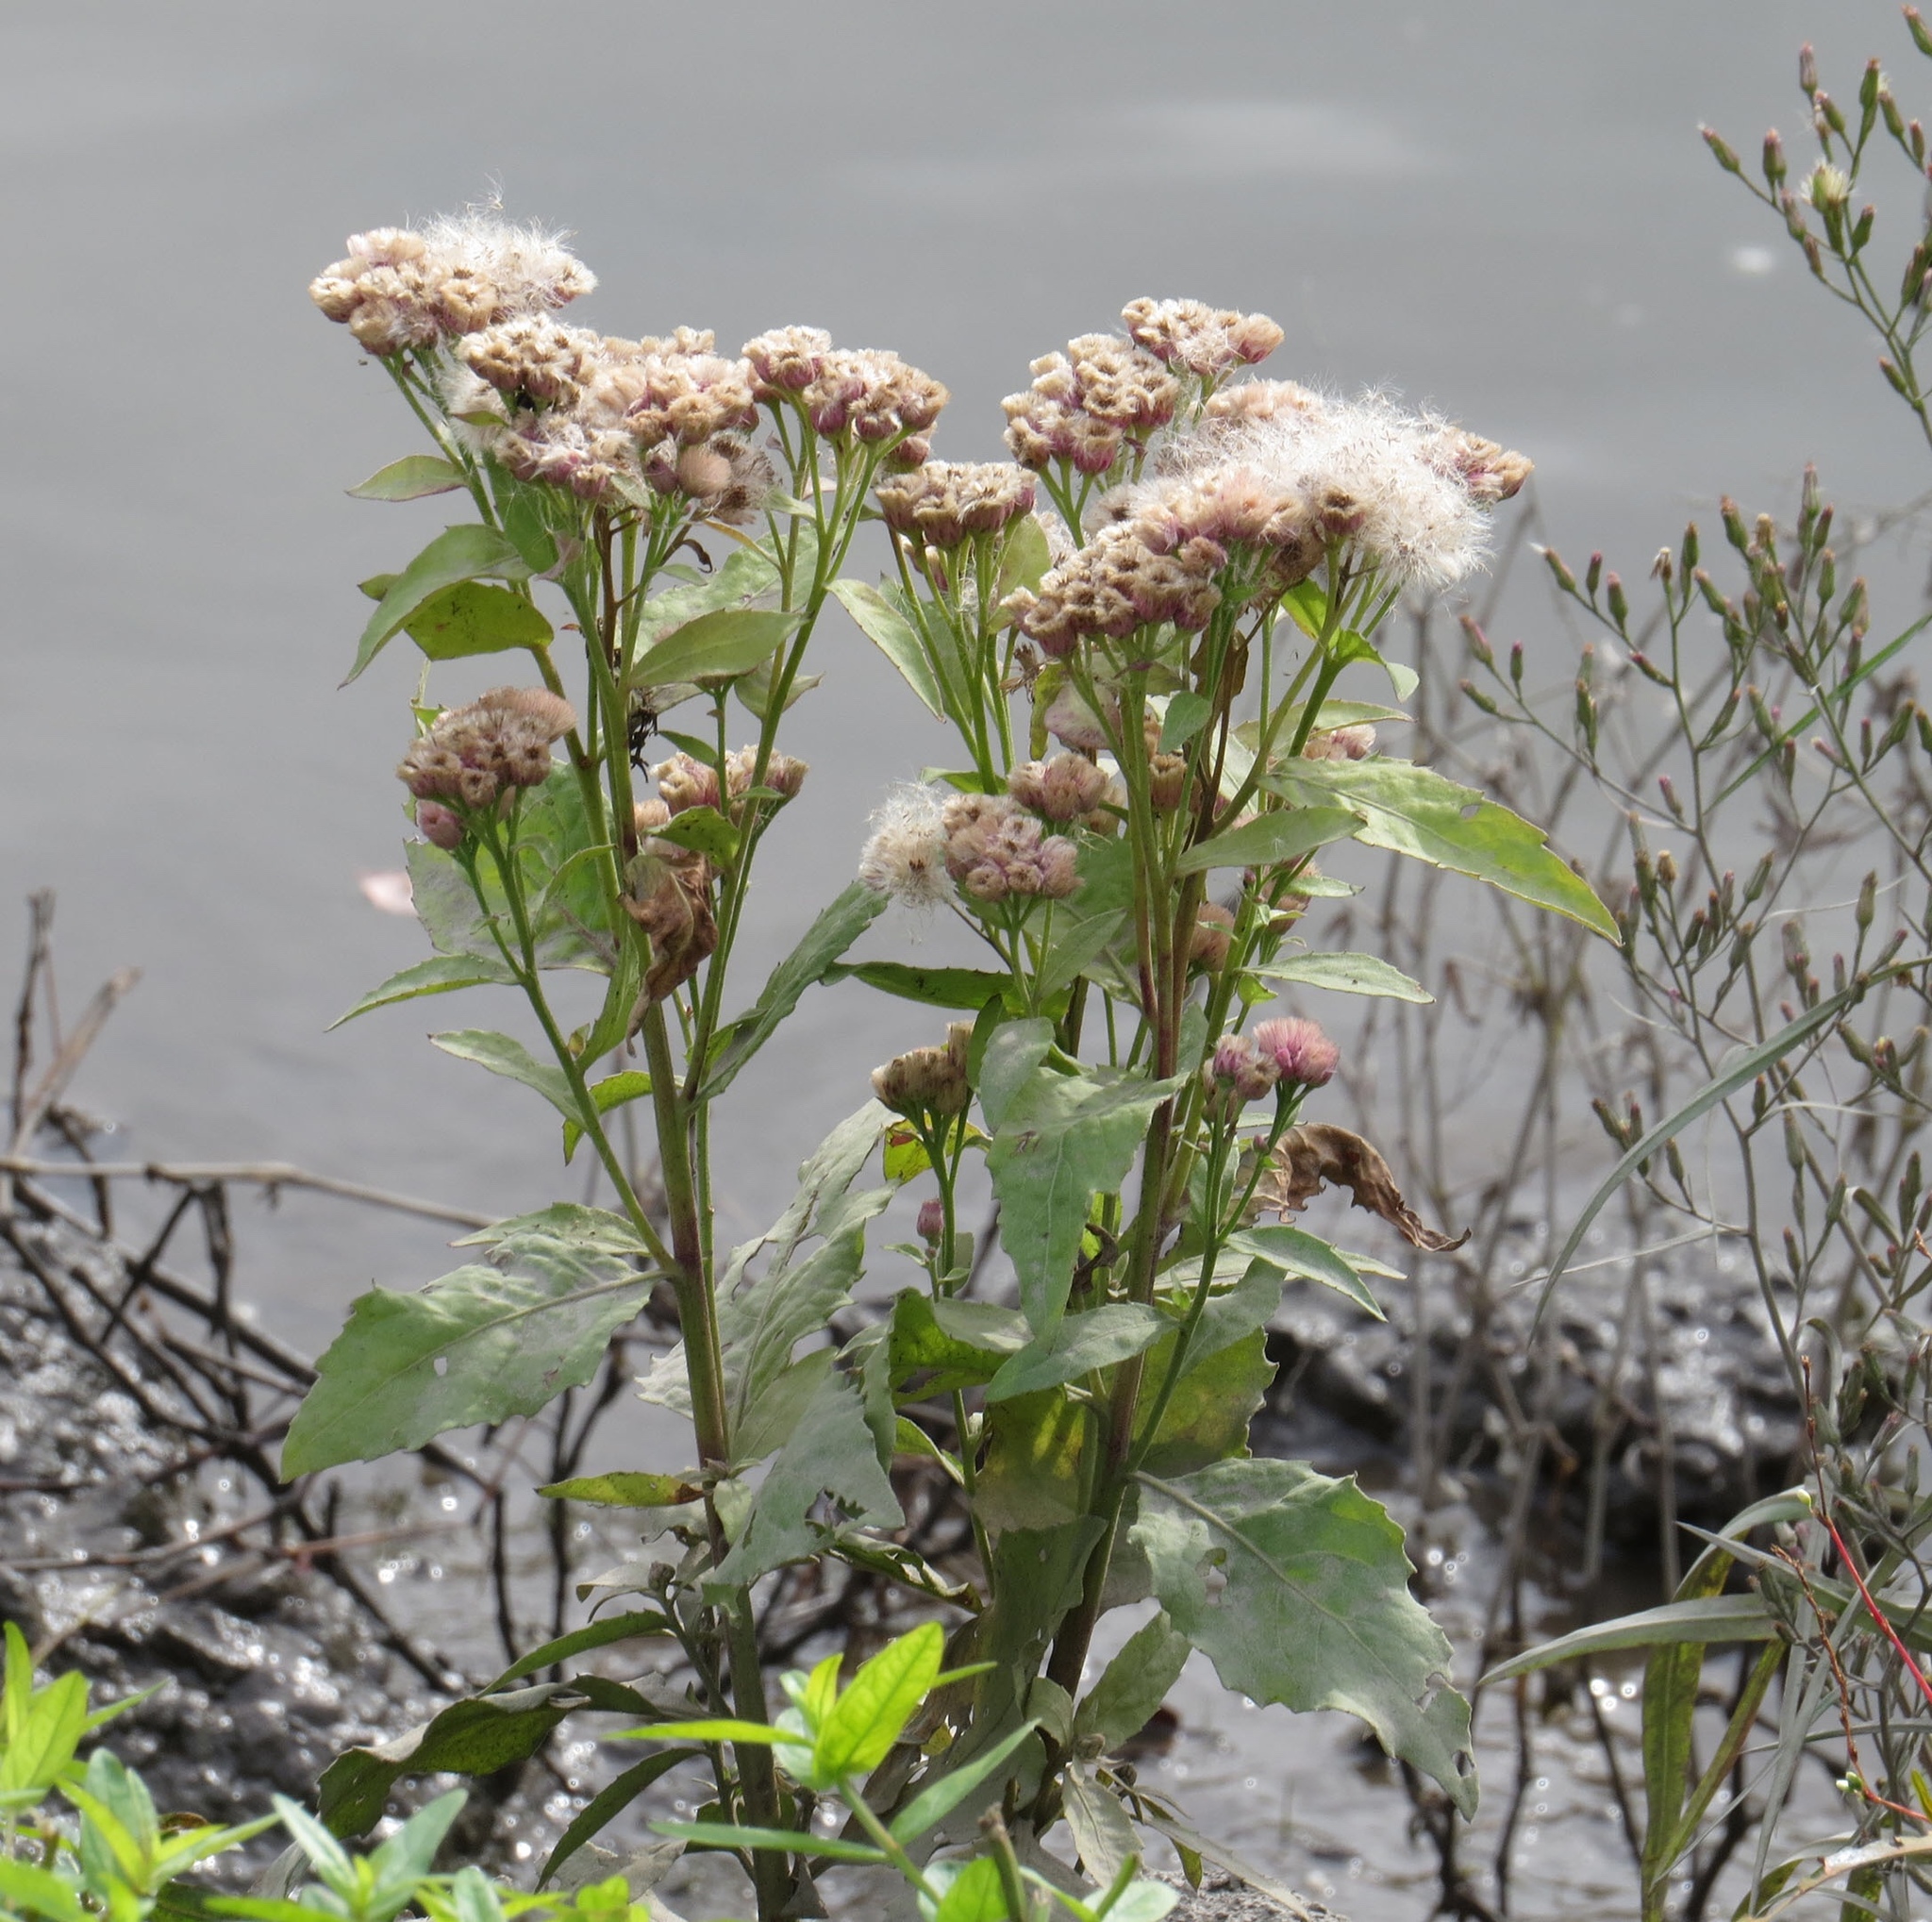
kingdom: Plantae
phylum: Tracheophyta
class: Magnoliopsida
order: Asterales
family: Asteraceae
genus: Pluchea
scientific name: Pluchea odorata
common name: Saltmarsh fleabane
